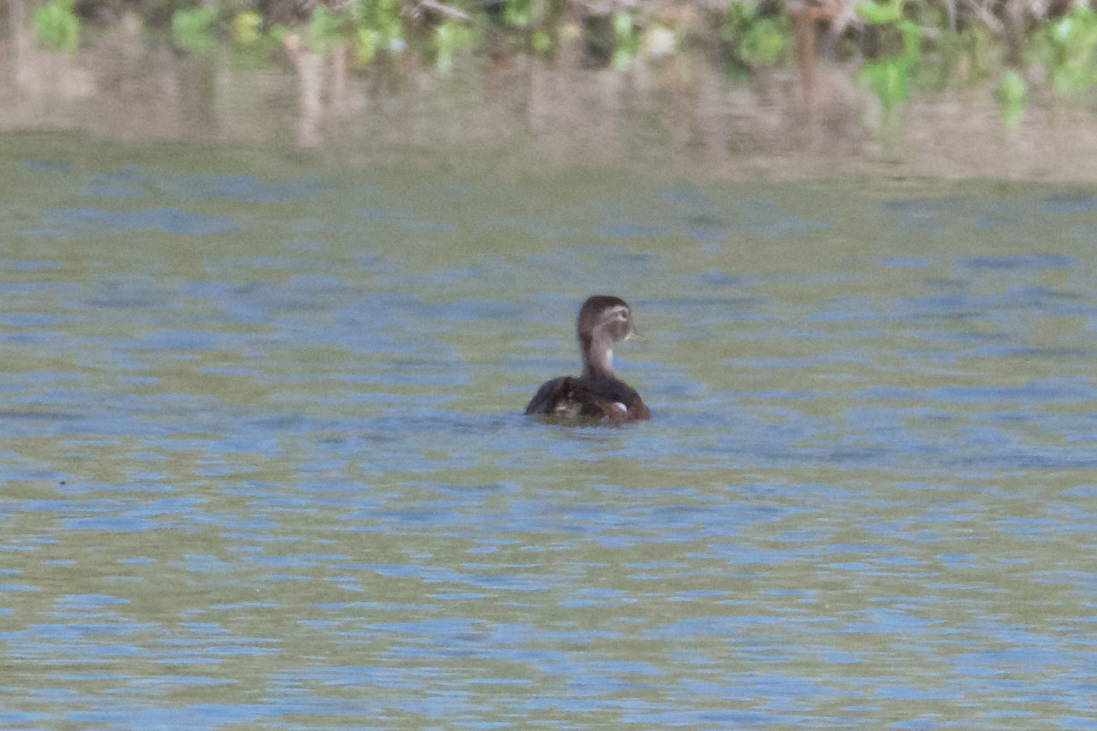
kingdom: Animalia
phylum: Chordata
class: Aves
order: Anseriformes
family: Anatidae
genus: Aix
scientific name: Aix sponsa
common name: Wood duck
